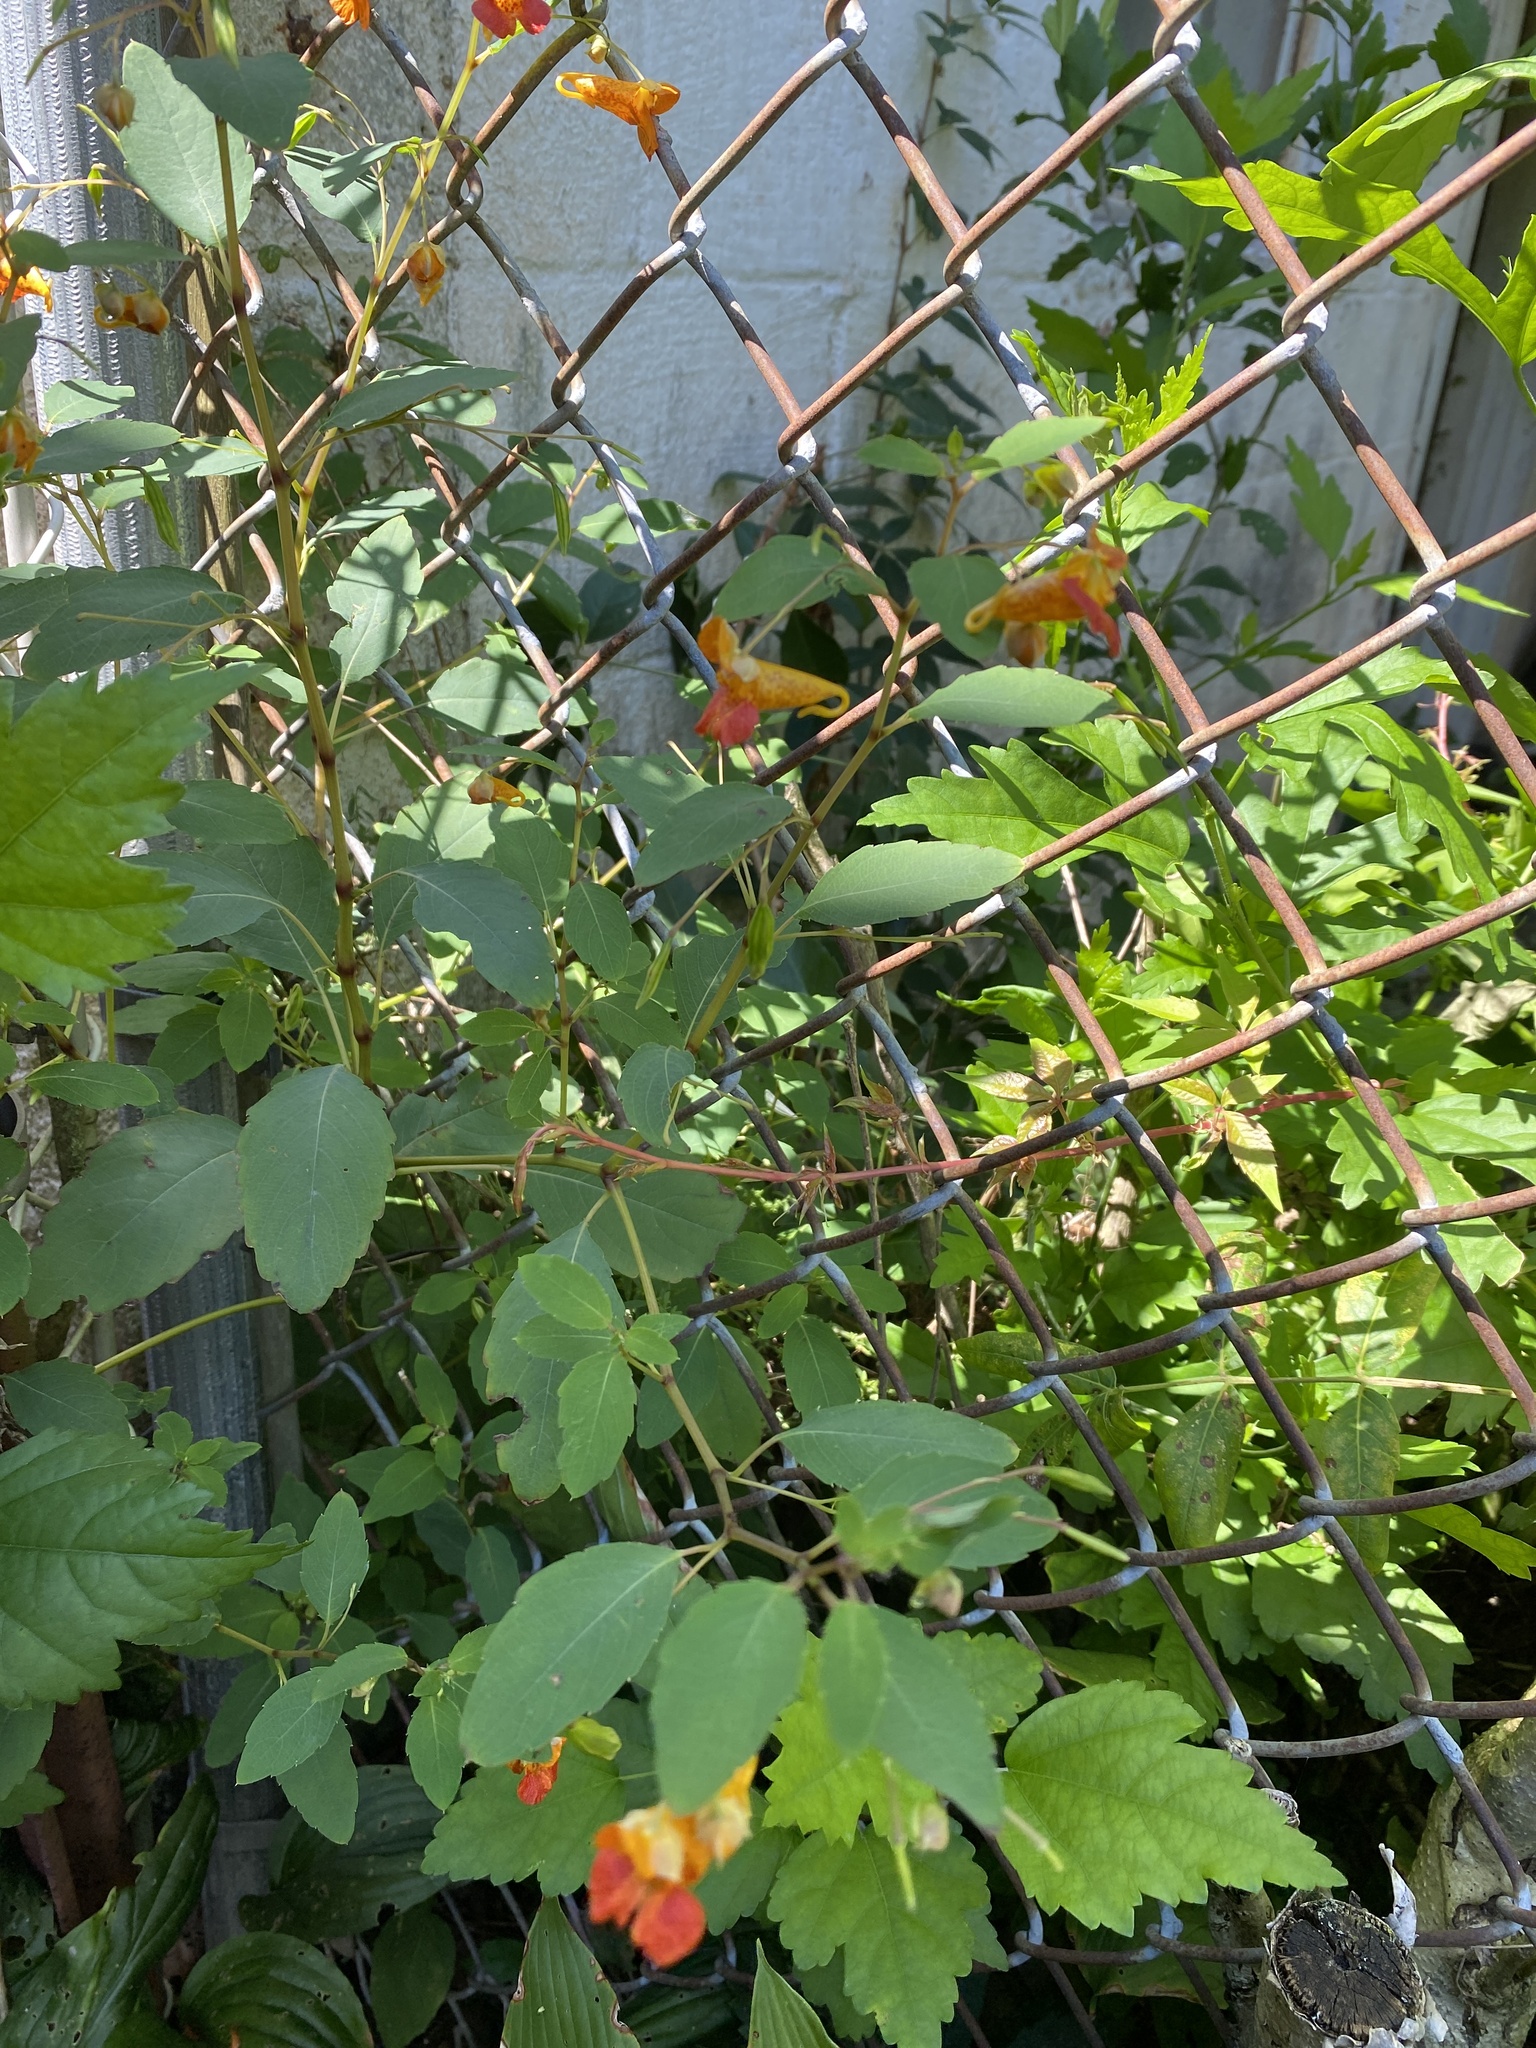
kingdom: Plantae
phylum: Tracheophyta
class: Magnoliopsida
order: Ericales
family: Balsaminaceae
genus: Impatiens
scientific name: Impatiens capensis
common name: Orange balsam
